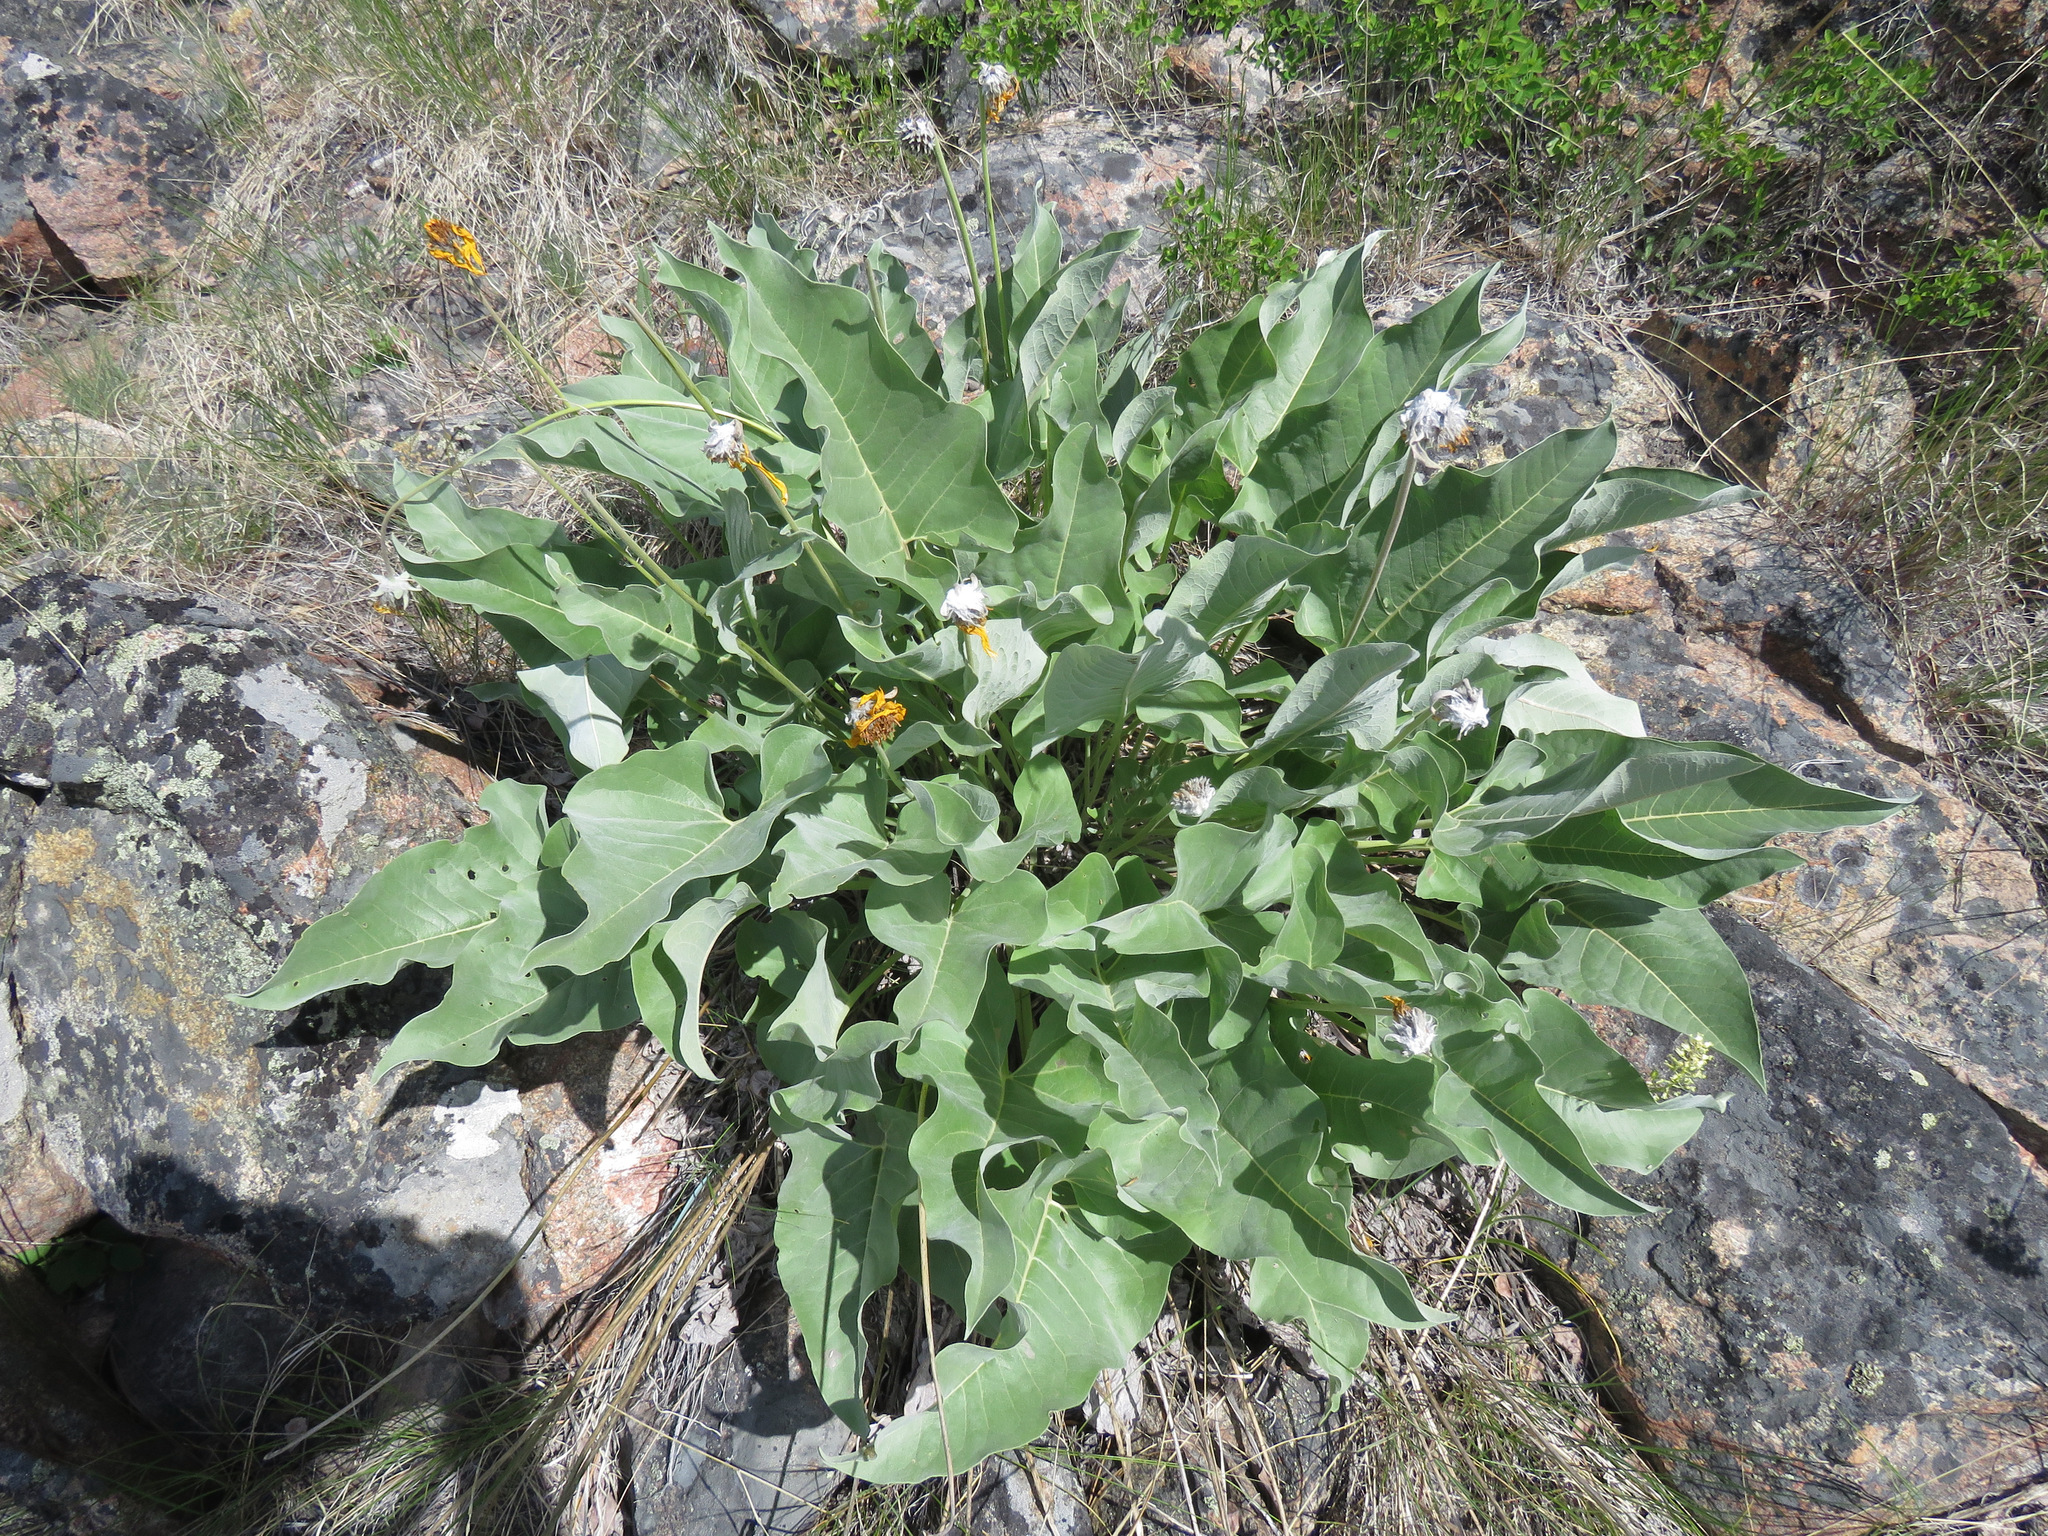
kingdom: Plantae
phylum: Tracheophyta
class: Magnoliopsida
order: Asterales
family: Asteraceae
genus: Wyethia
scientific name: Wyethia sagittata
